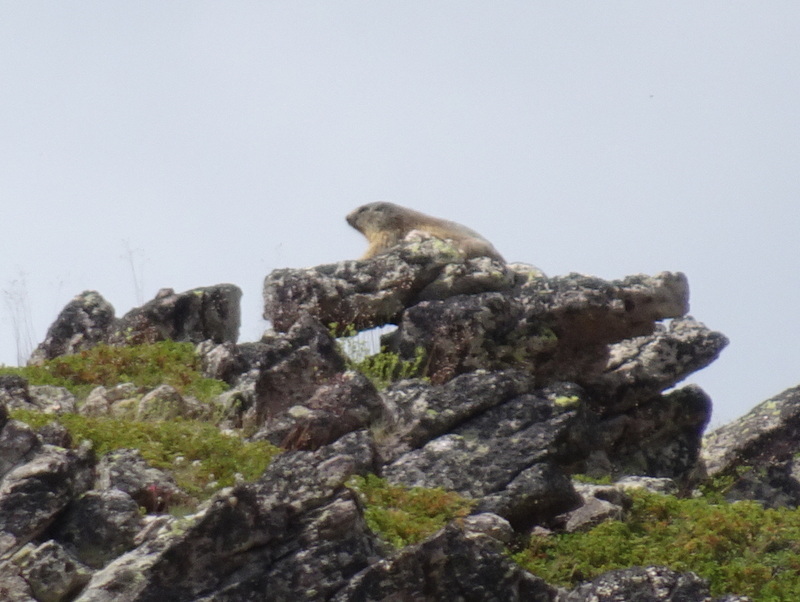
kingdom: Animalia
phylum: Chordata
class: Mammalia
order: Rodentia
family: Sciuridae
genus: Marmota
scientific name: Marmota marmota
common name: Alpine marmot
